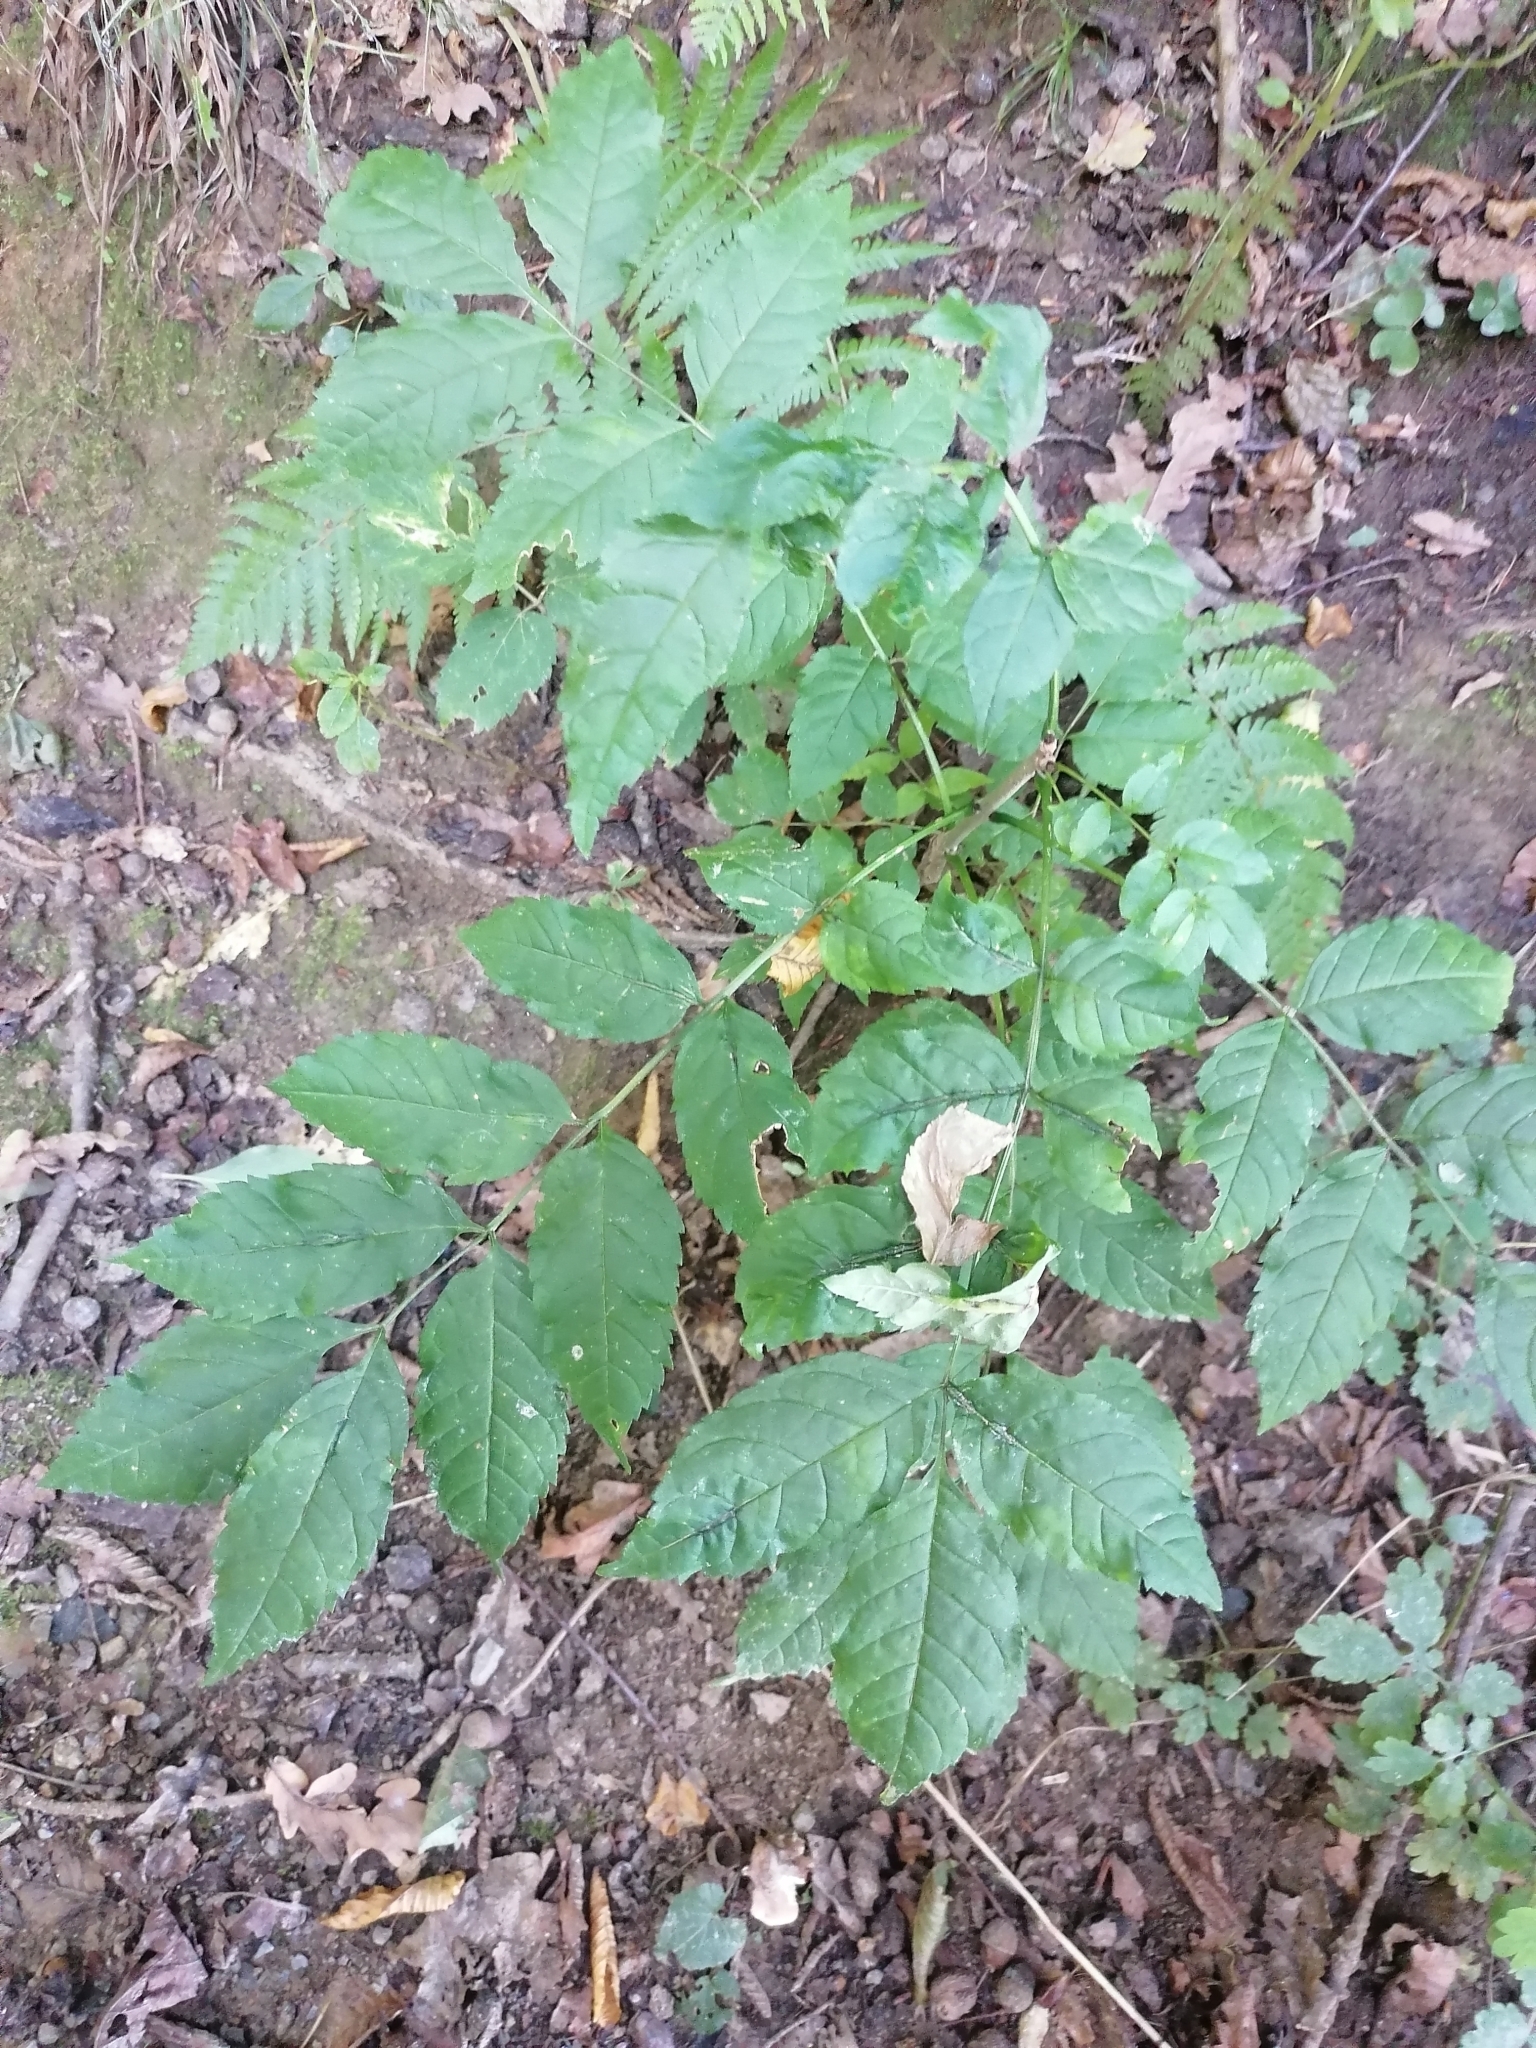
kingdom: Plantae
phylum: Tracheophyta
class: Magnoliopsida
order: Lamiales
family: Oleaceae
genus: Fraxinus
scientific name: Fraxinus excelsior
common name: European ash
